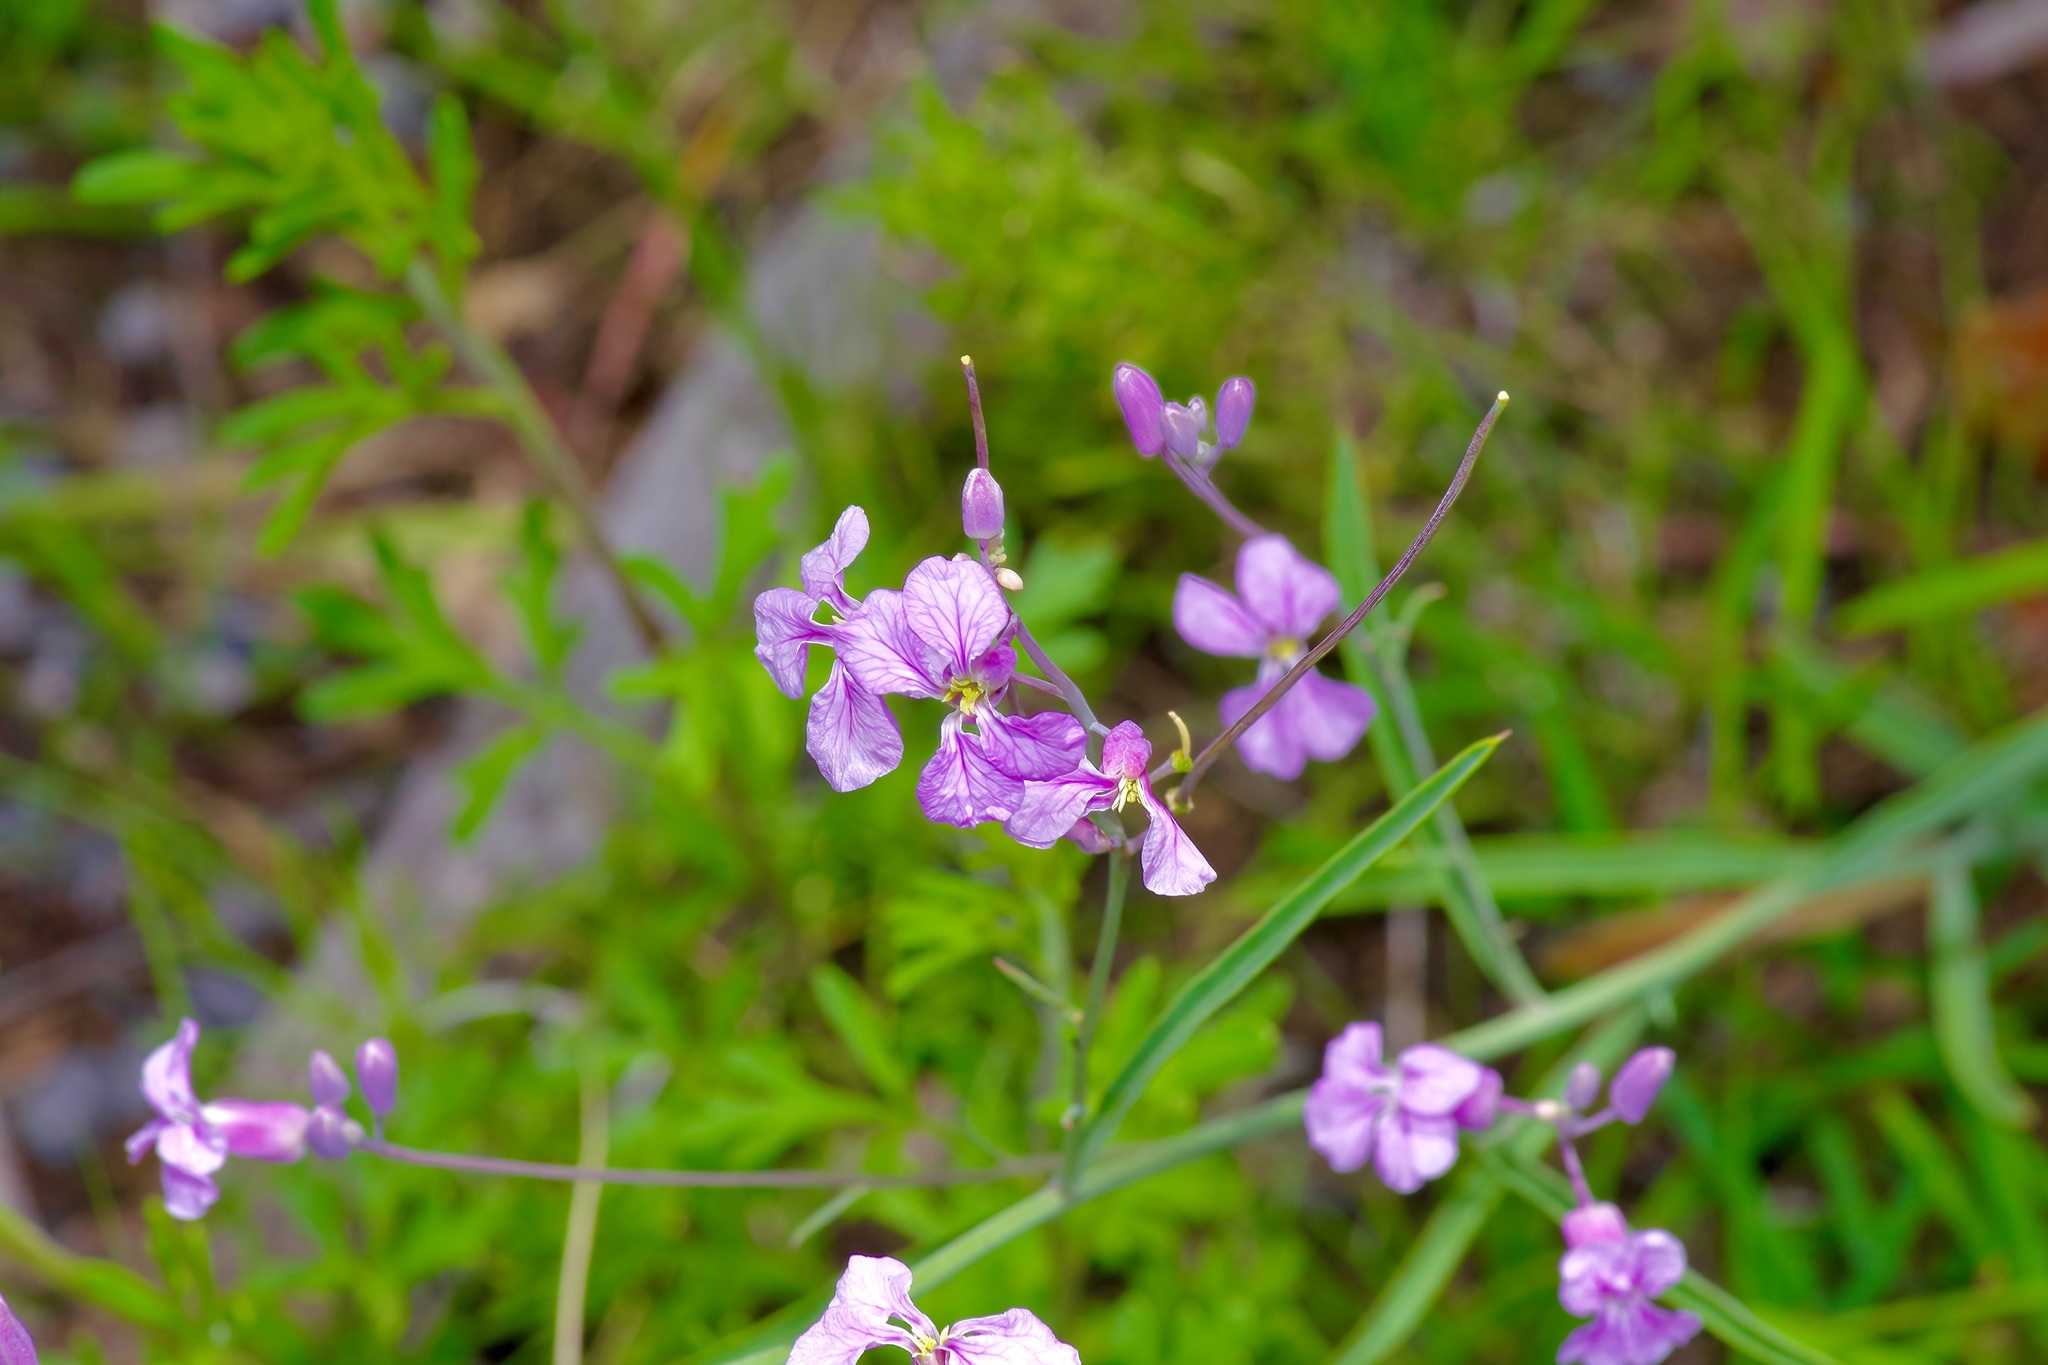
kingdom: Plantae
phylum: Tracheophyta
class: Magnoliopsida
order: Brassicales
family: Brassicaceae
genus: Hesperidanthus
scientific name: Hesperidanthus linearifolius
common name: Slim-leaf plains mustard
